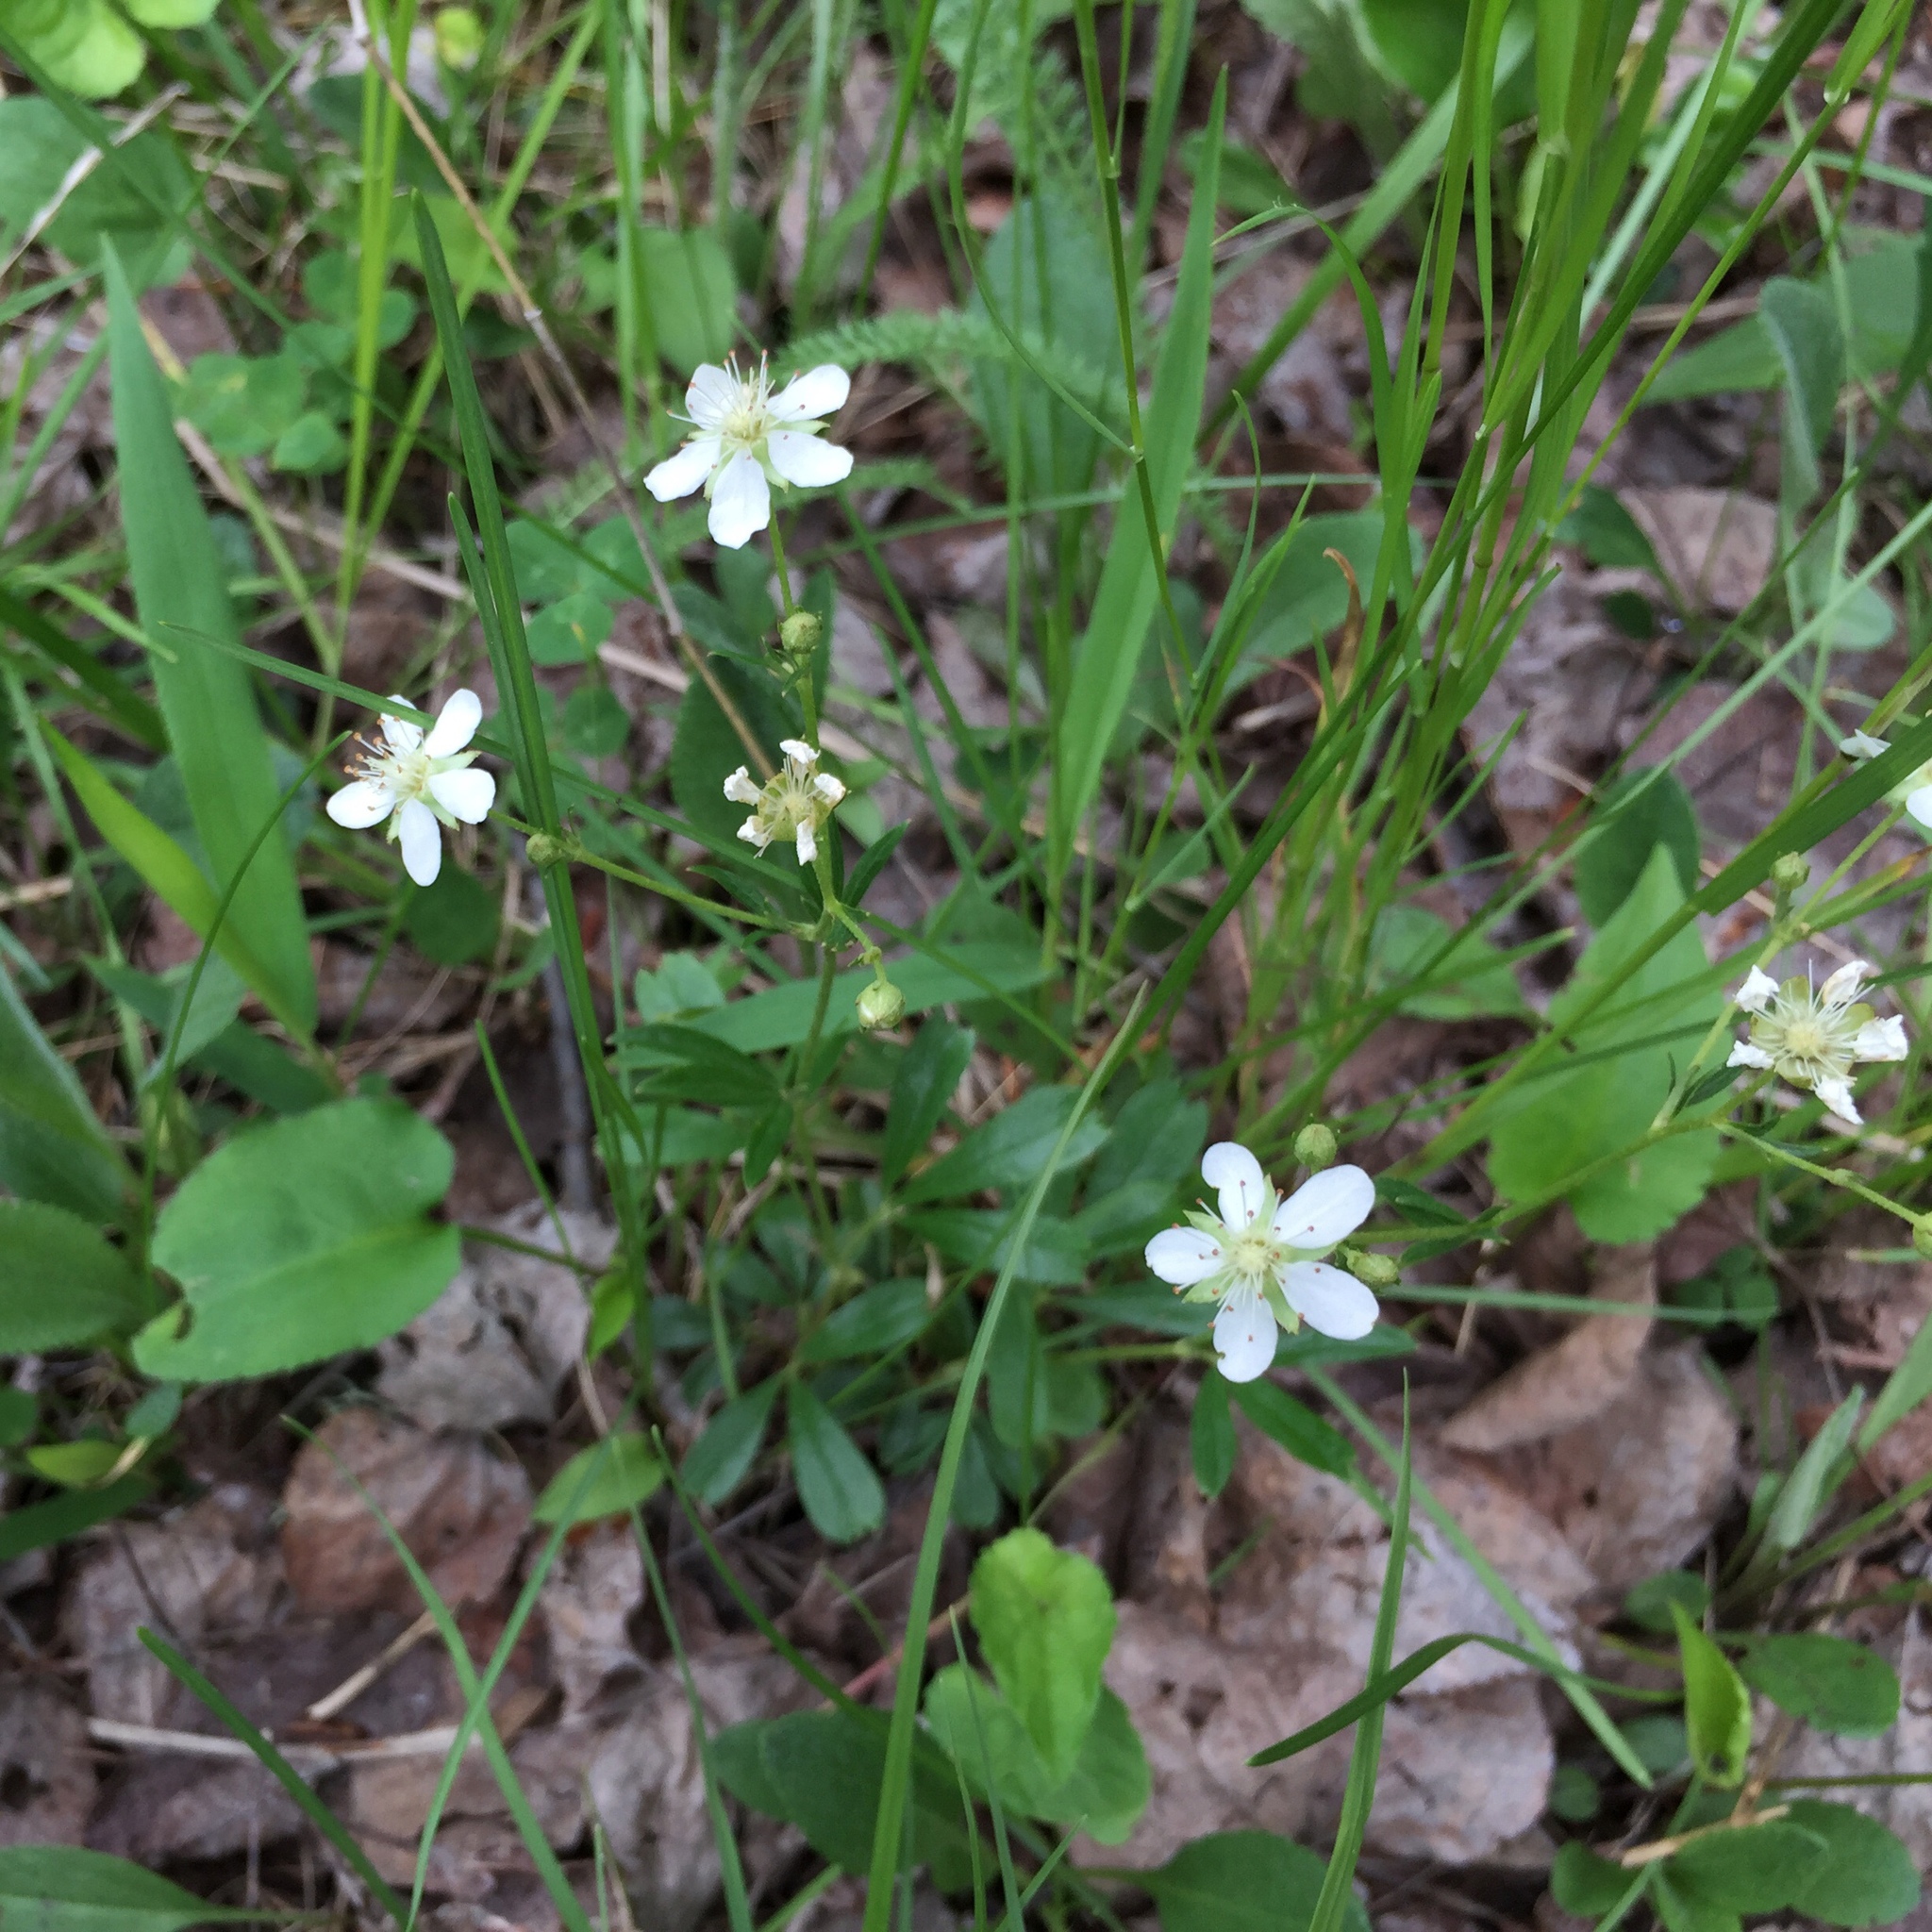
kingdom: Plantae
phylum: Tracheophyta
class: Magnoliopsida
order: Rosales
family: Rosaceae
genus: Sibbaldia
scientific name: Sibbaldia tridentata
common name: Three-toothed cinquefoil
